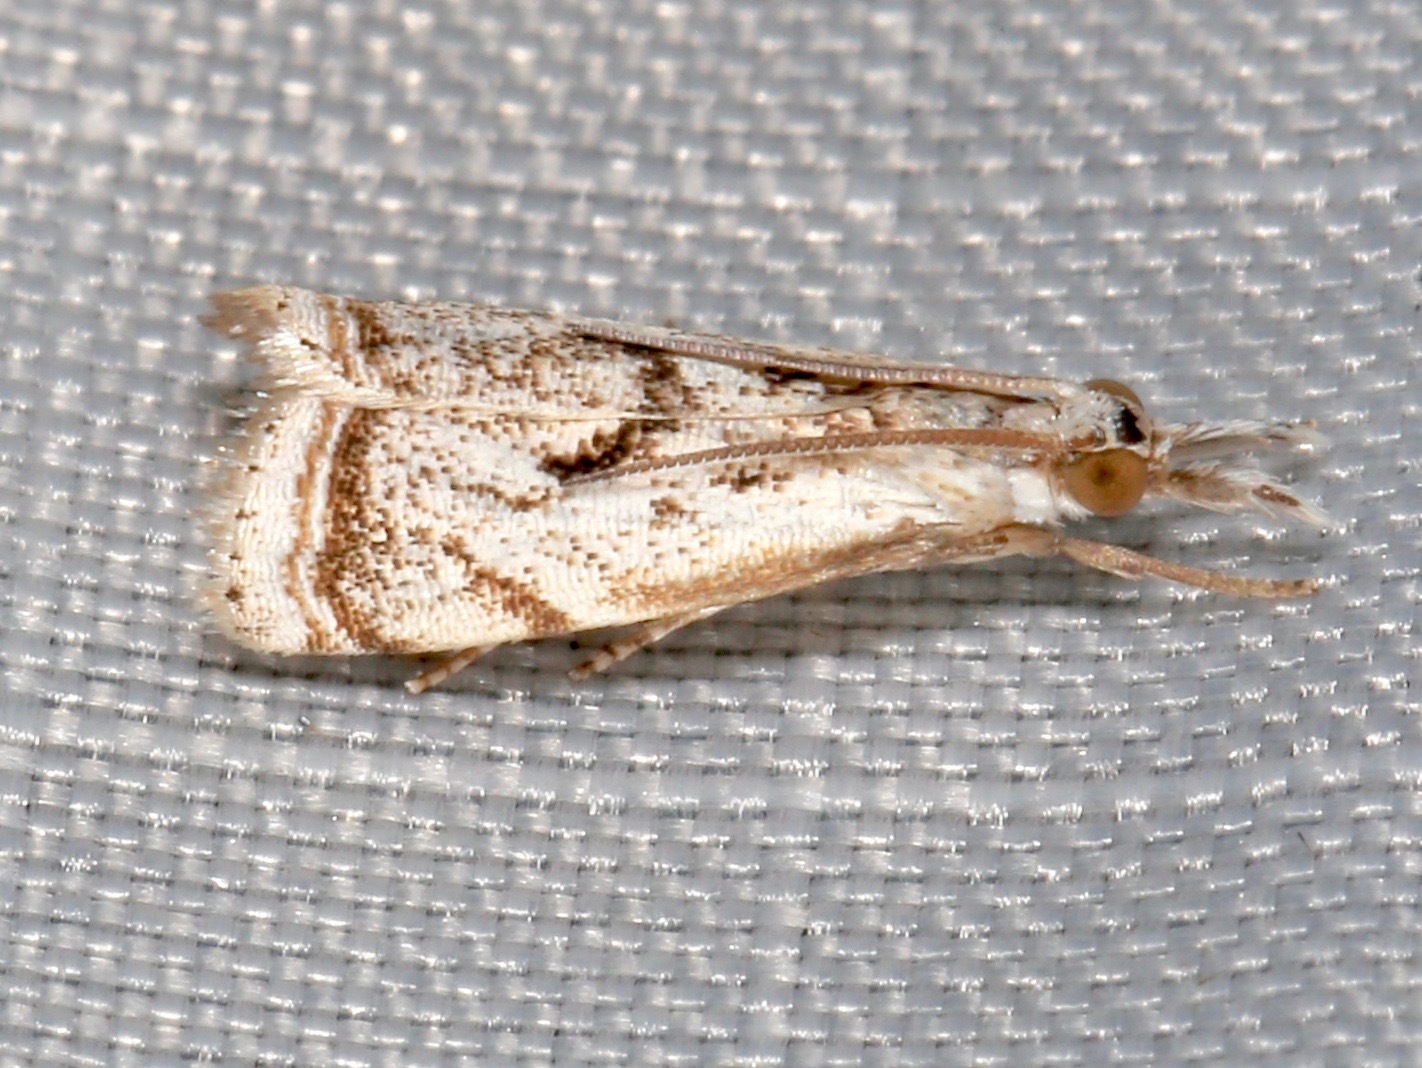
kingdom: Animalia
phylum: Arthropoda
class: Insecta
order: Lepidoptera
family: Crambidae
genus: Microcrambus
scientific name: Microcrambus elegans
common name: Elegant grass-veneer
